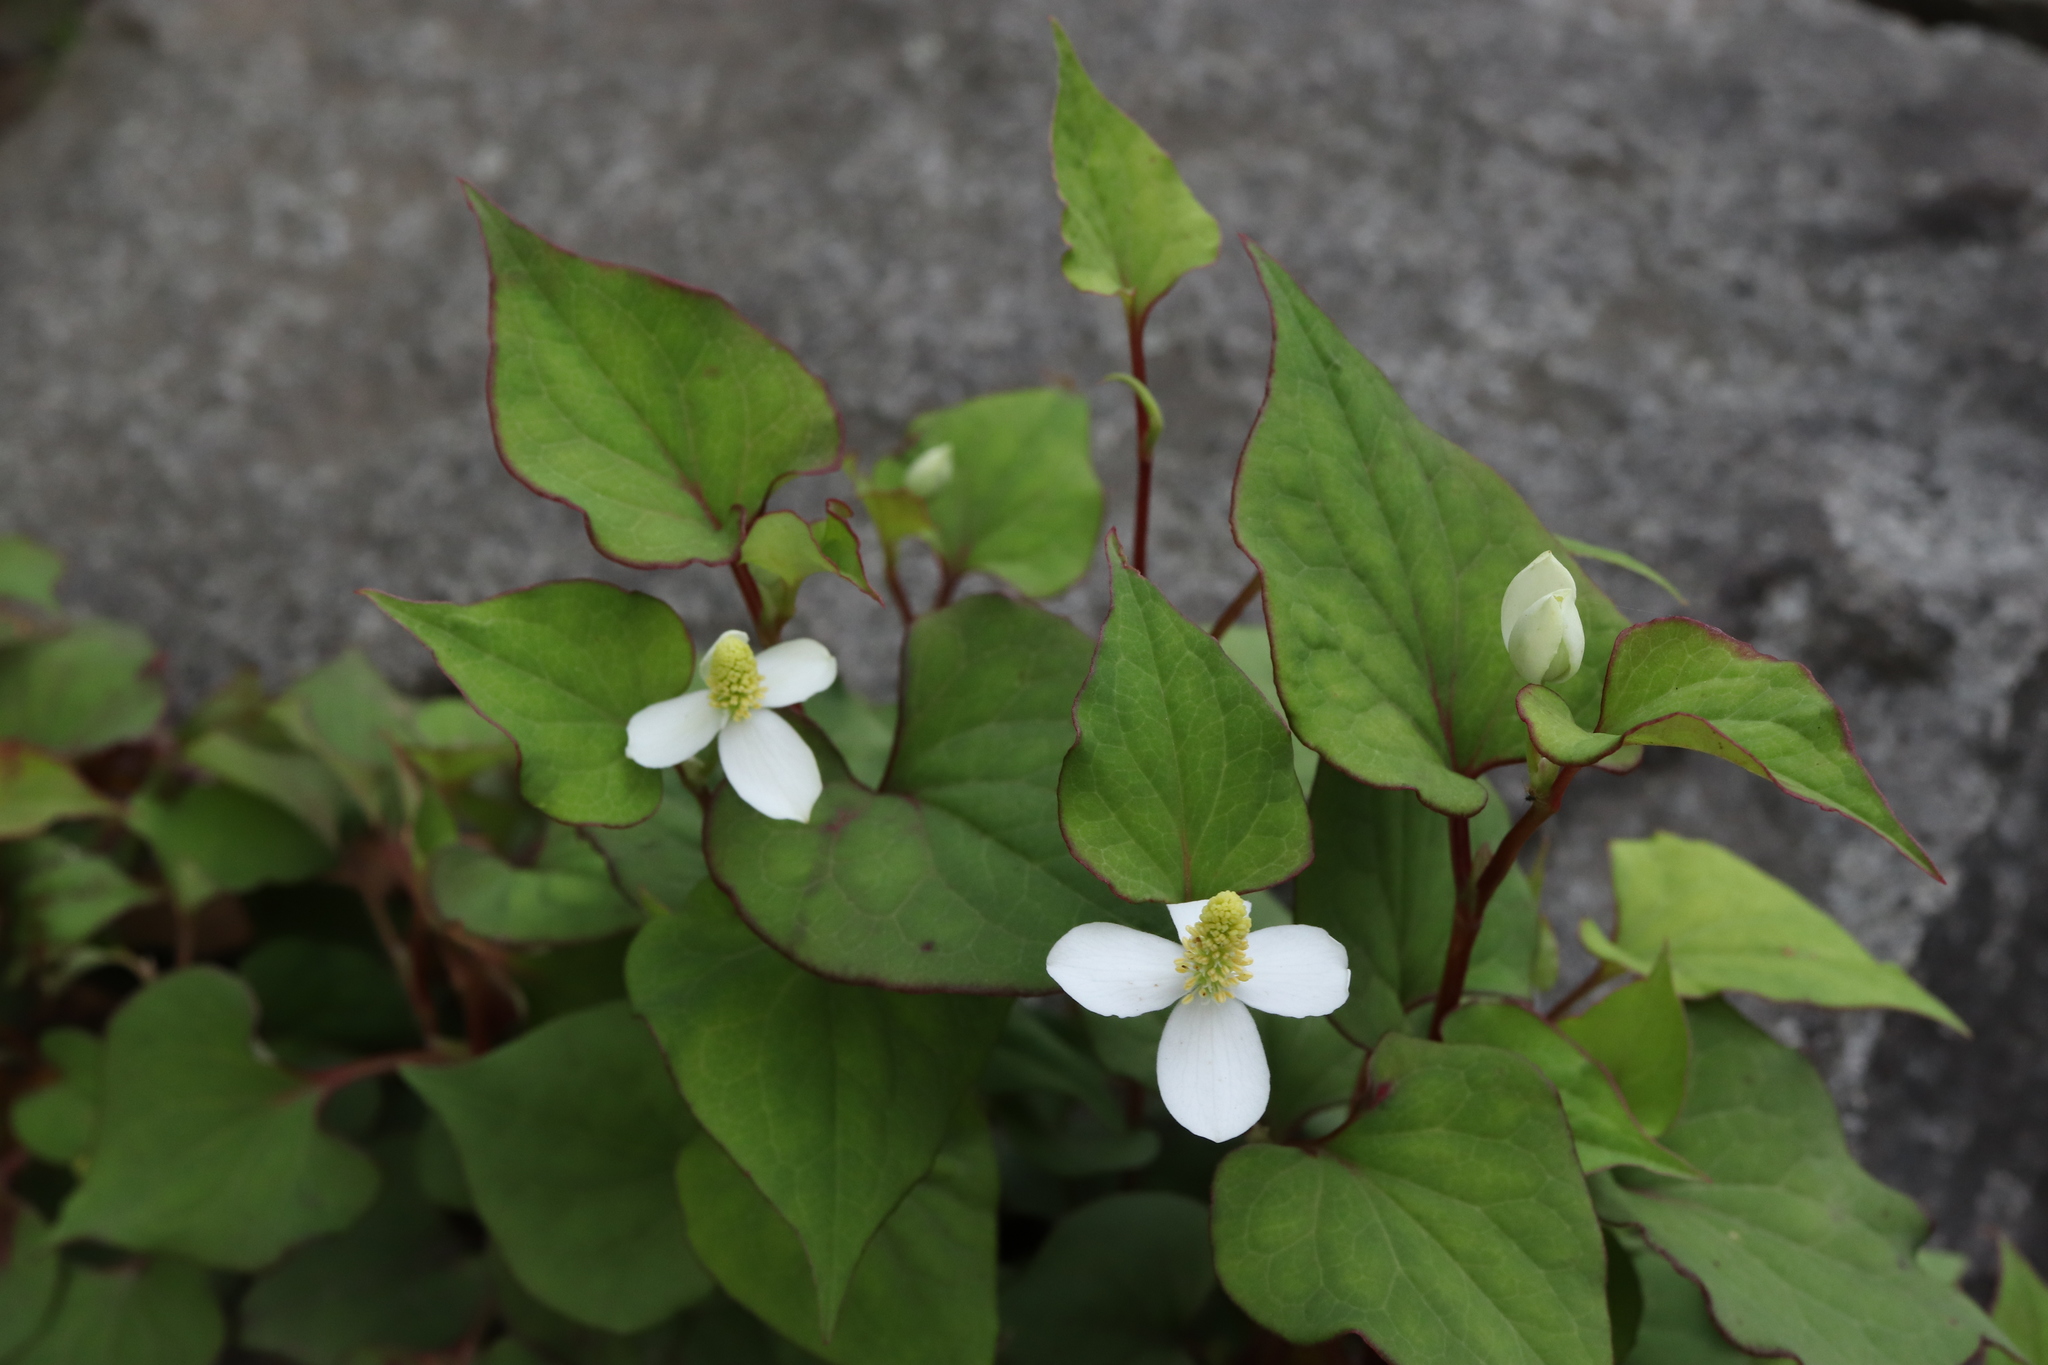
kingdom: Plantae
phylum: Tracheophyta
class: Magnoliopsida
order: Piperales
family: Saururaceae
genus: Houttuynia
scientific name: Houttuynia cordata
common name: Chameleon
